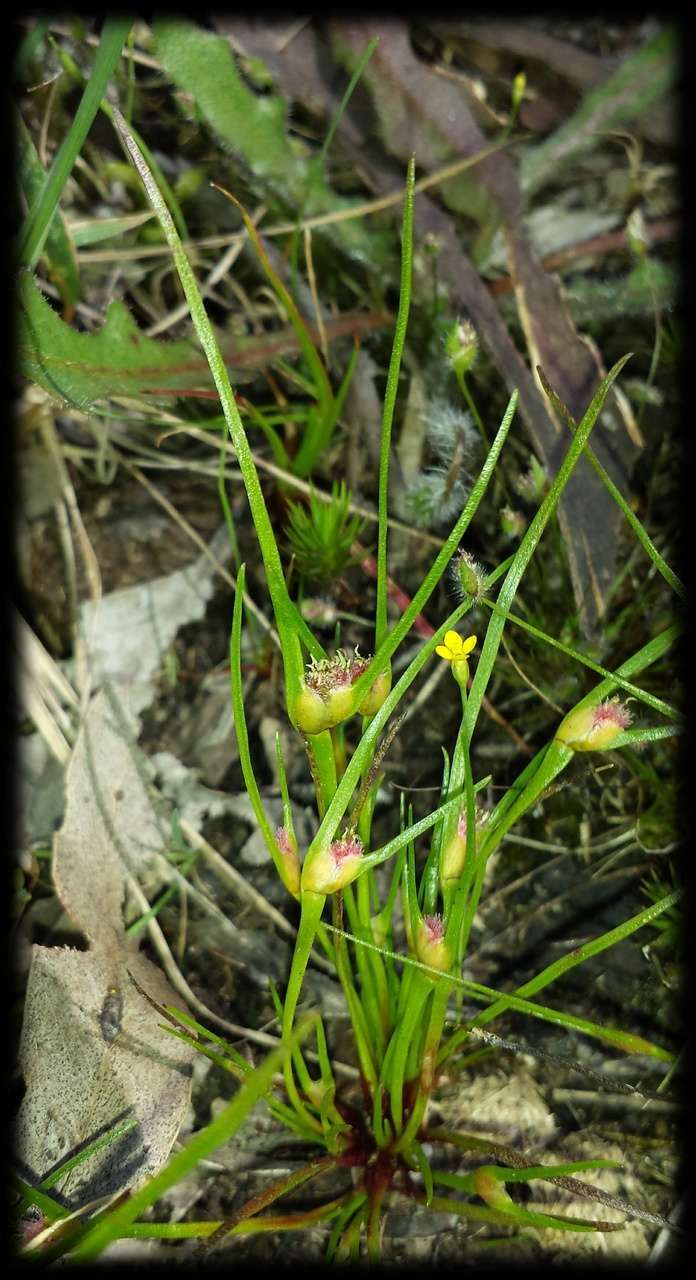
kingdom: Plantae
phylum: Tracheophyta
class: Liliopsida
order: Poales
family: Restionaceae
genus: Centrolepis
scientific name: Centrolepis aristata
